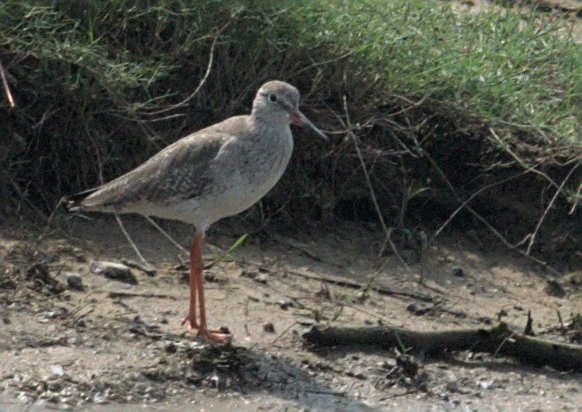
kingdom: Animalia
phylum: Chordata
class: Aves
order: Charadriiformes
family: Scolopacidae
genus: Tringa
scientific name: Tringa totanus
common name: Common redshank
